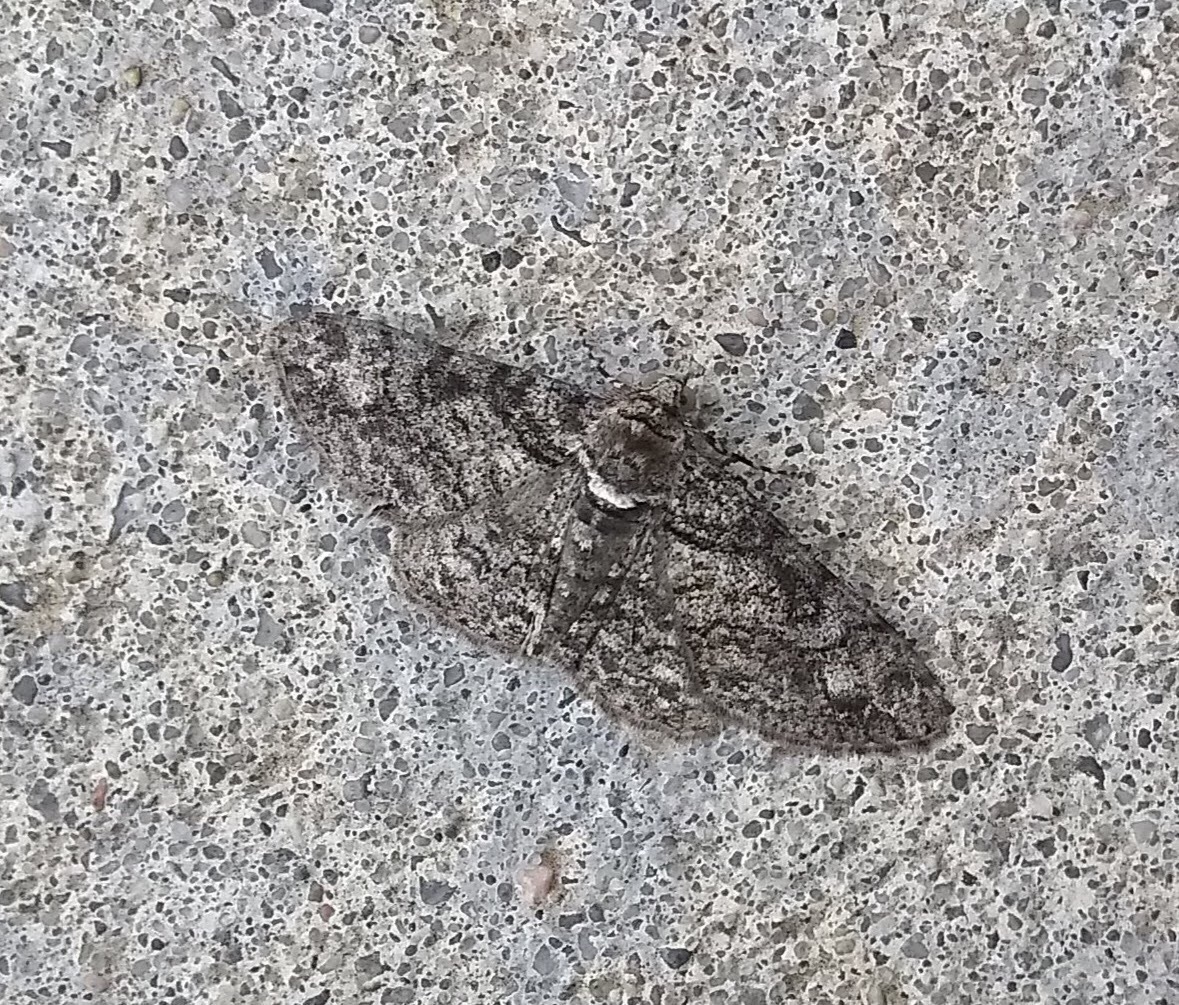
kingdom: Animalia
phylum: Arthropoda
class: Insecta
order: Lepidoptera
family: Geometridae
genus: Cleora
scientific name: Cleora sublunaria
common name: Double-lined gray
